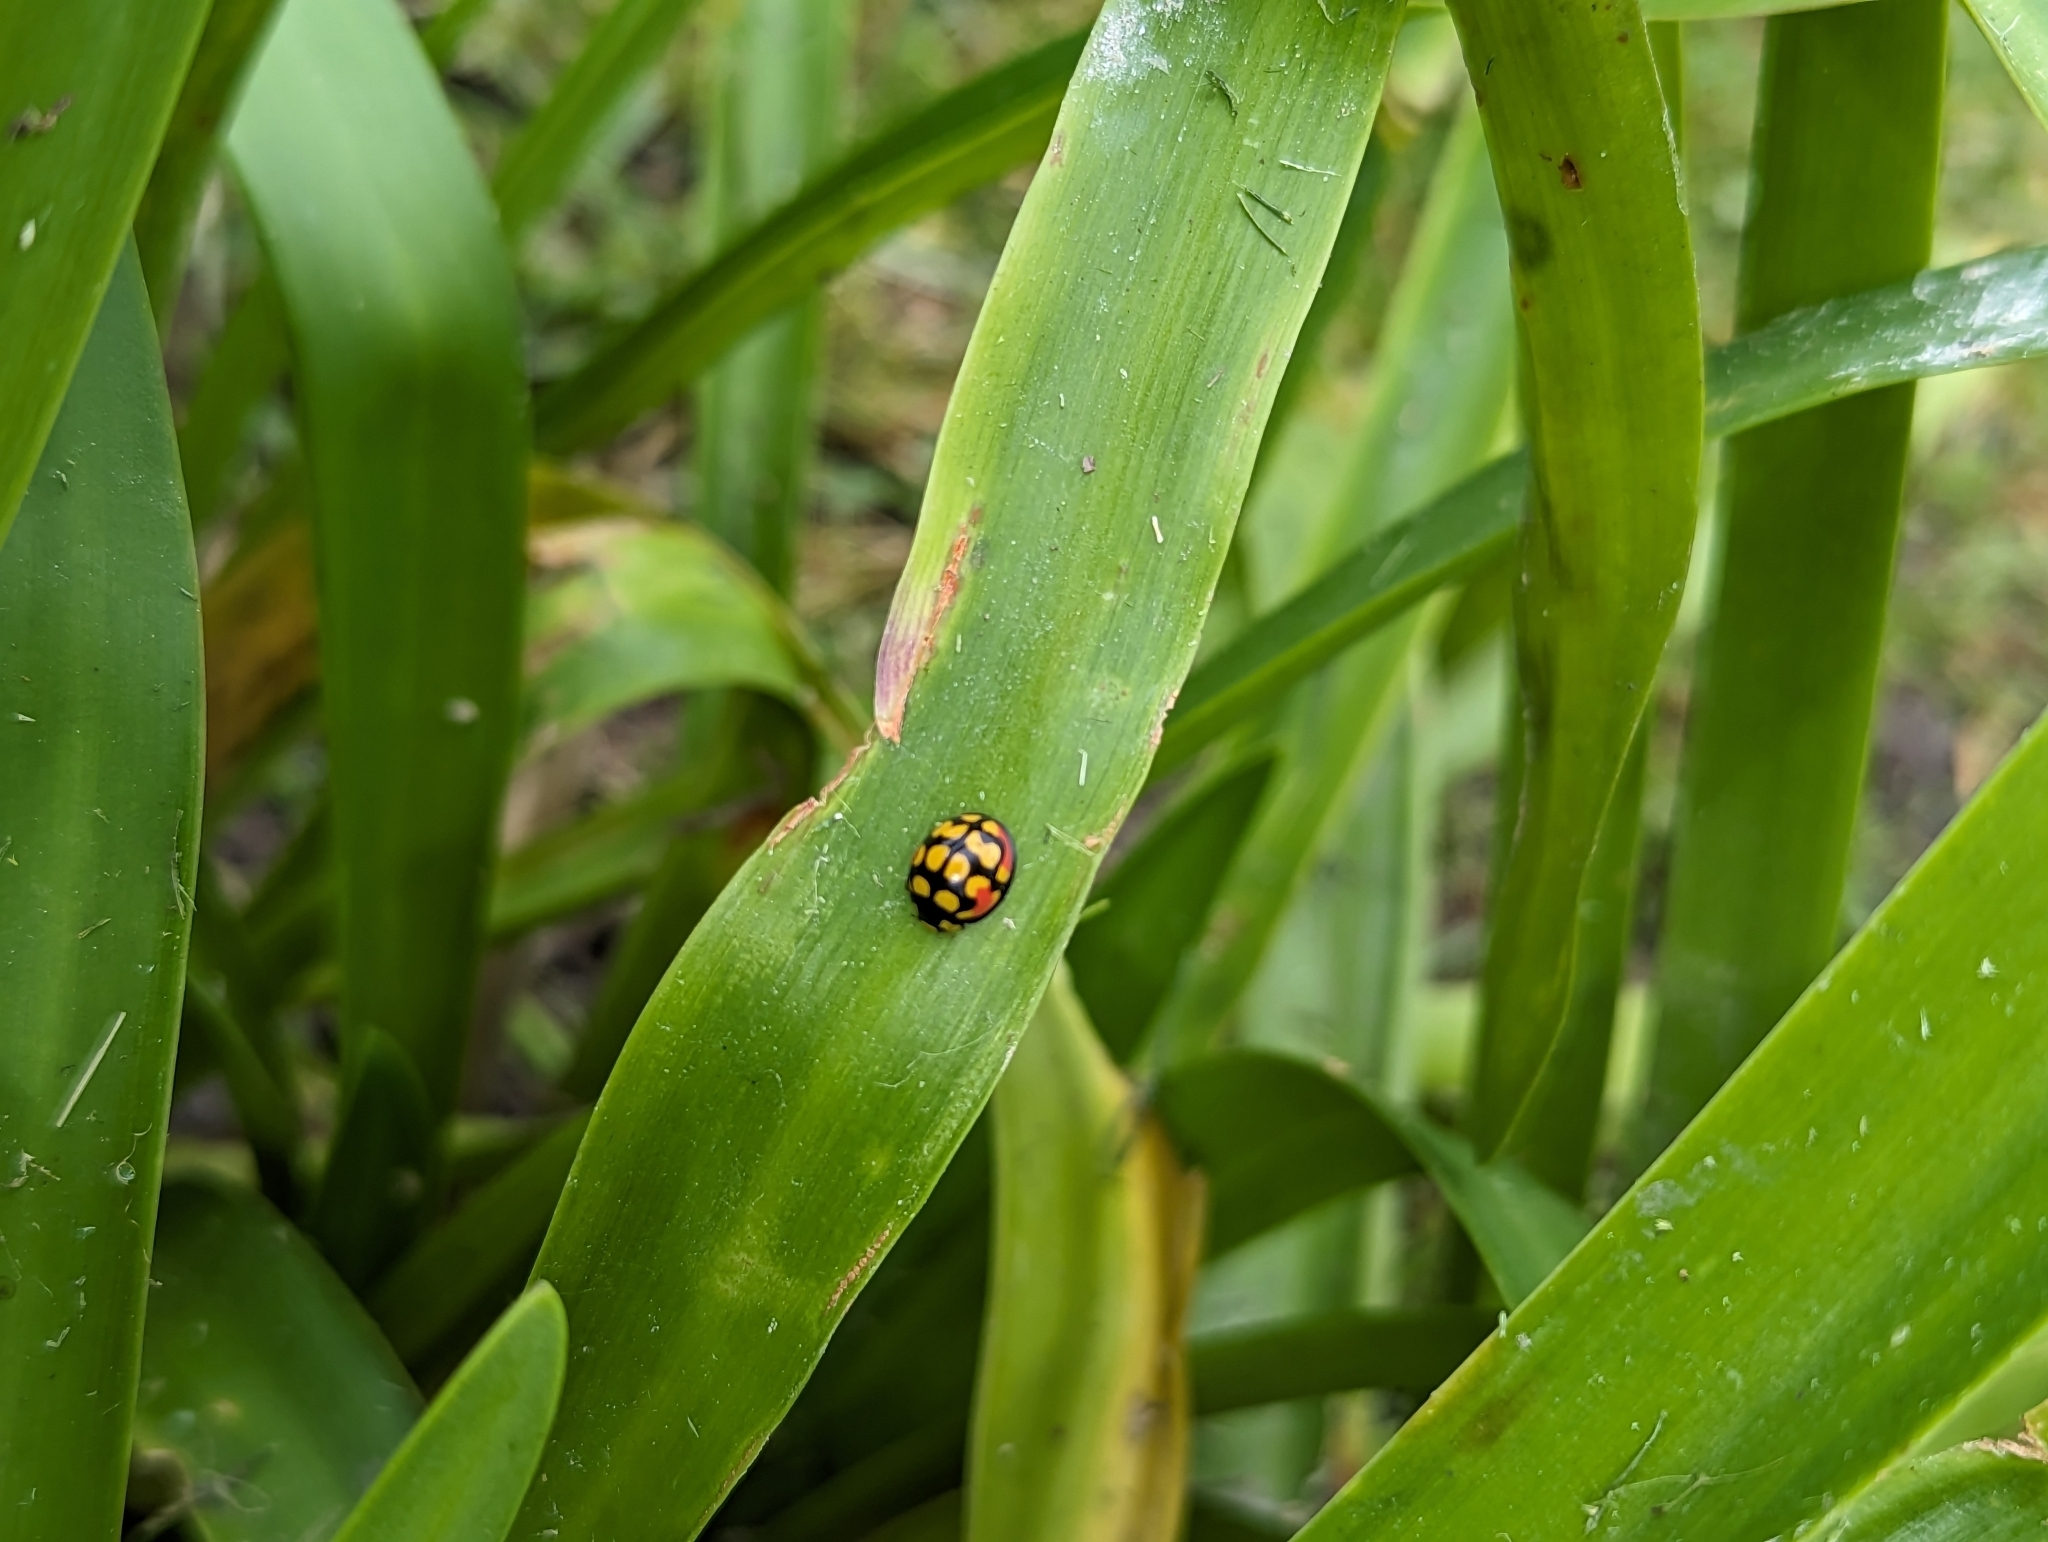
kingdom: Animalia
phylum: Arthropoda
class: Insecta
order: Coleoptera
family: Coccinellidae
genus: Cheilomenes
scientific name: Cheilomenes sulphurea
